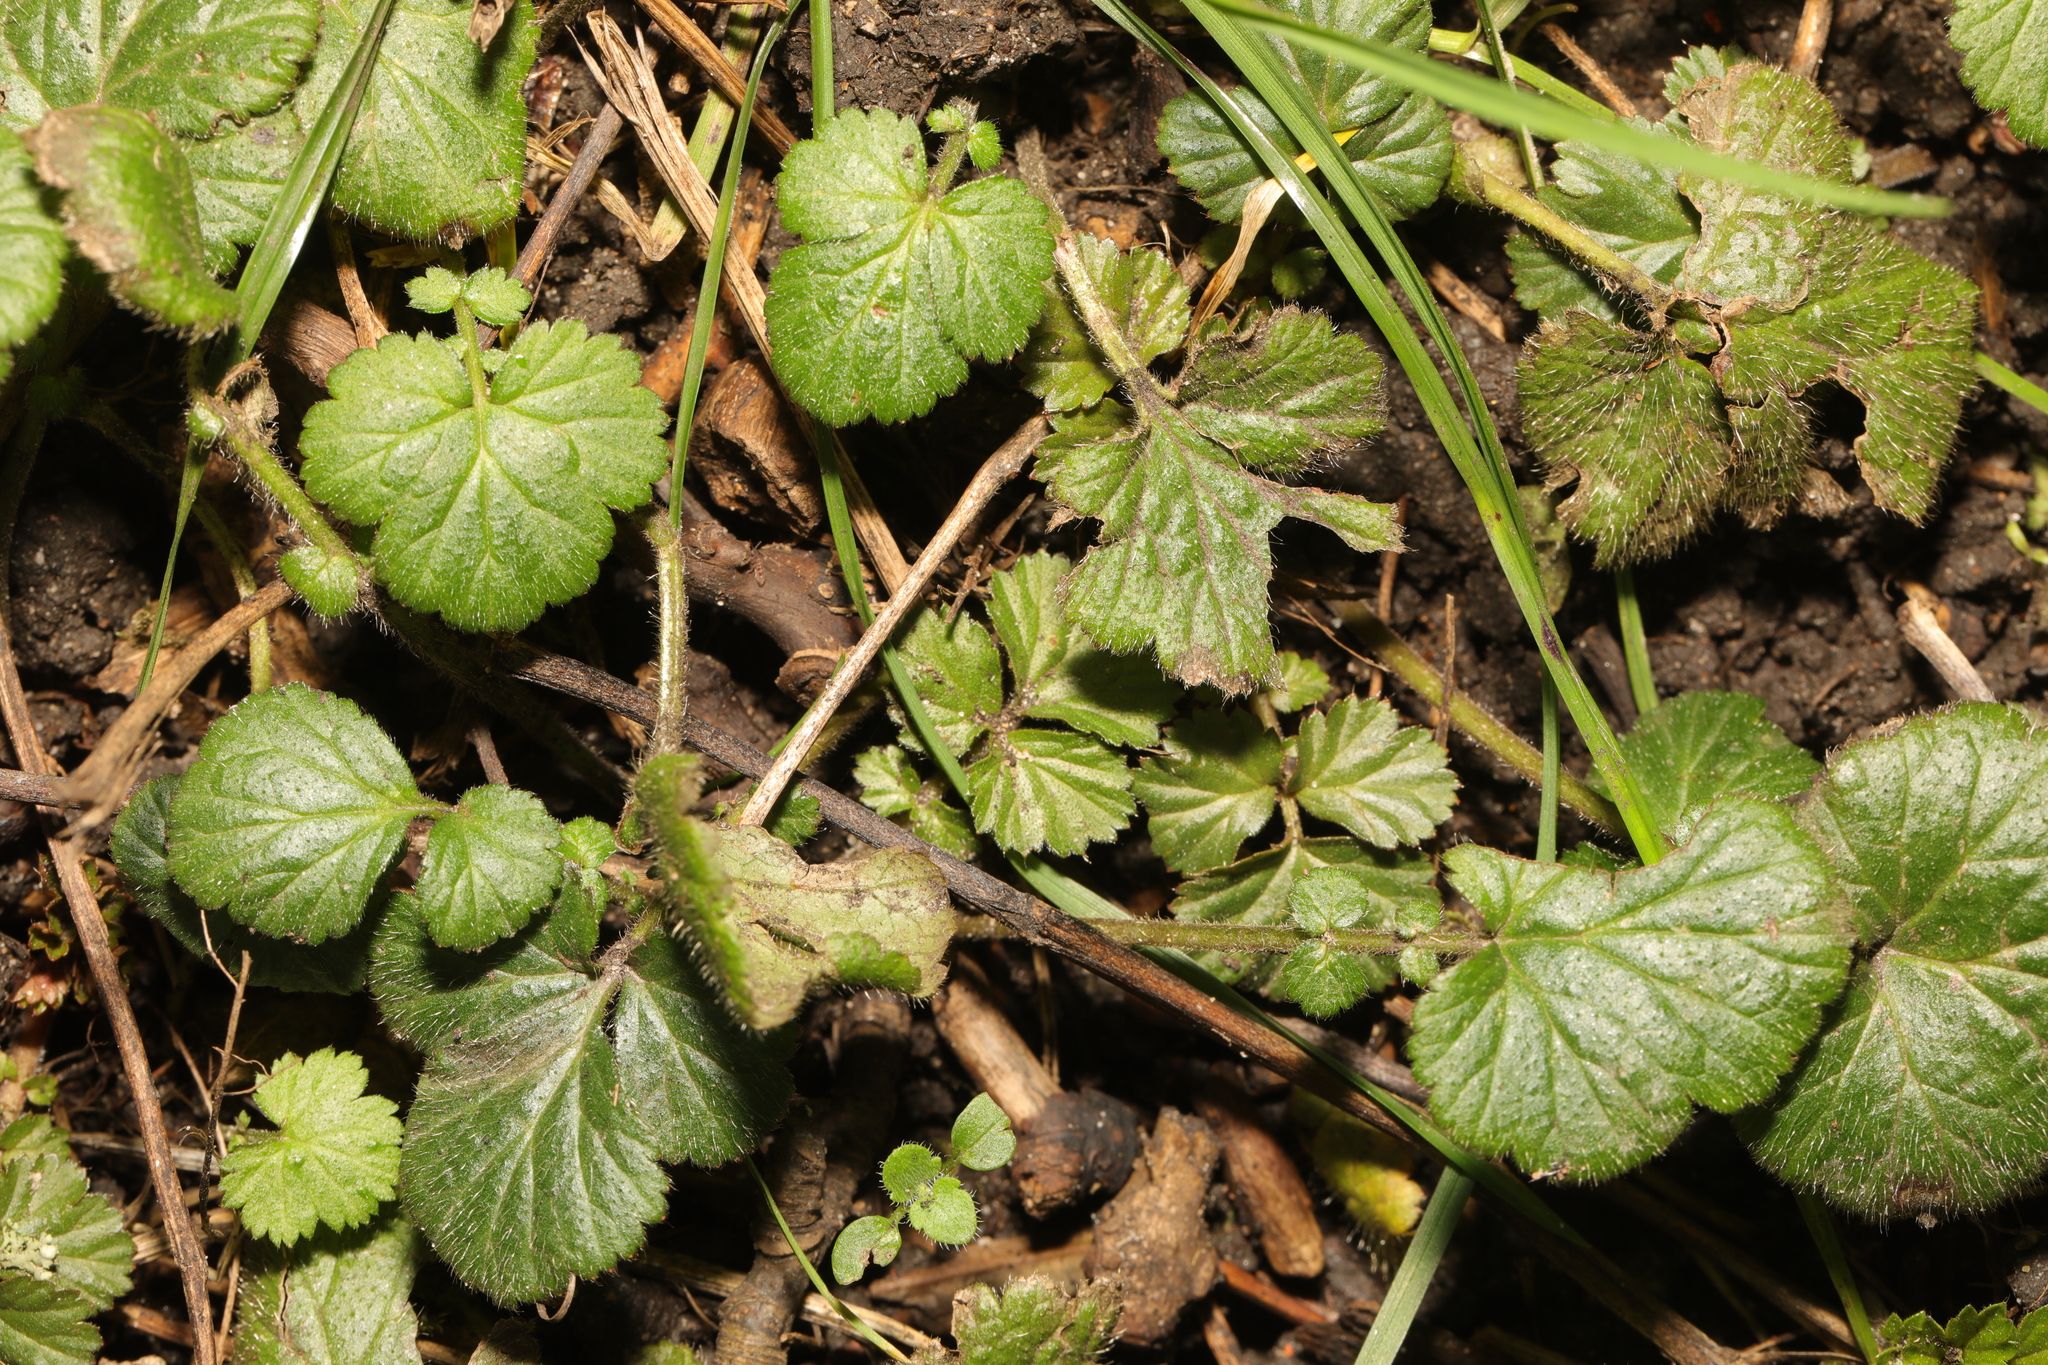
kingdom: Plantae
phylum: Tracheophyta
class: Magnoliopsida
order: Rosales
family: Rosaceae
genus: Geum
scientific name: Geum urbanum
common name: Wood avens
